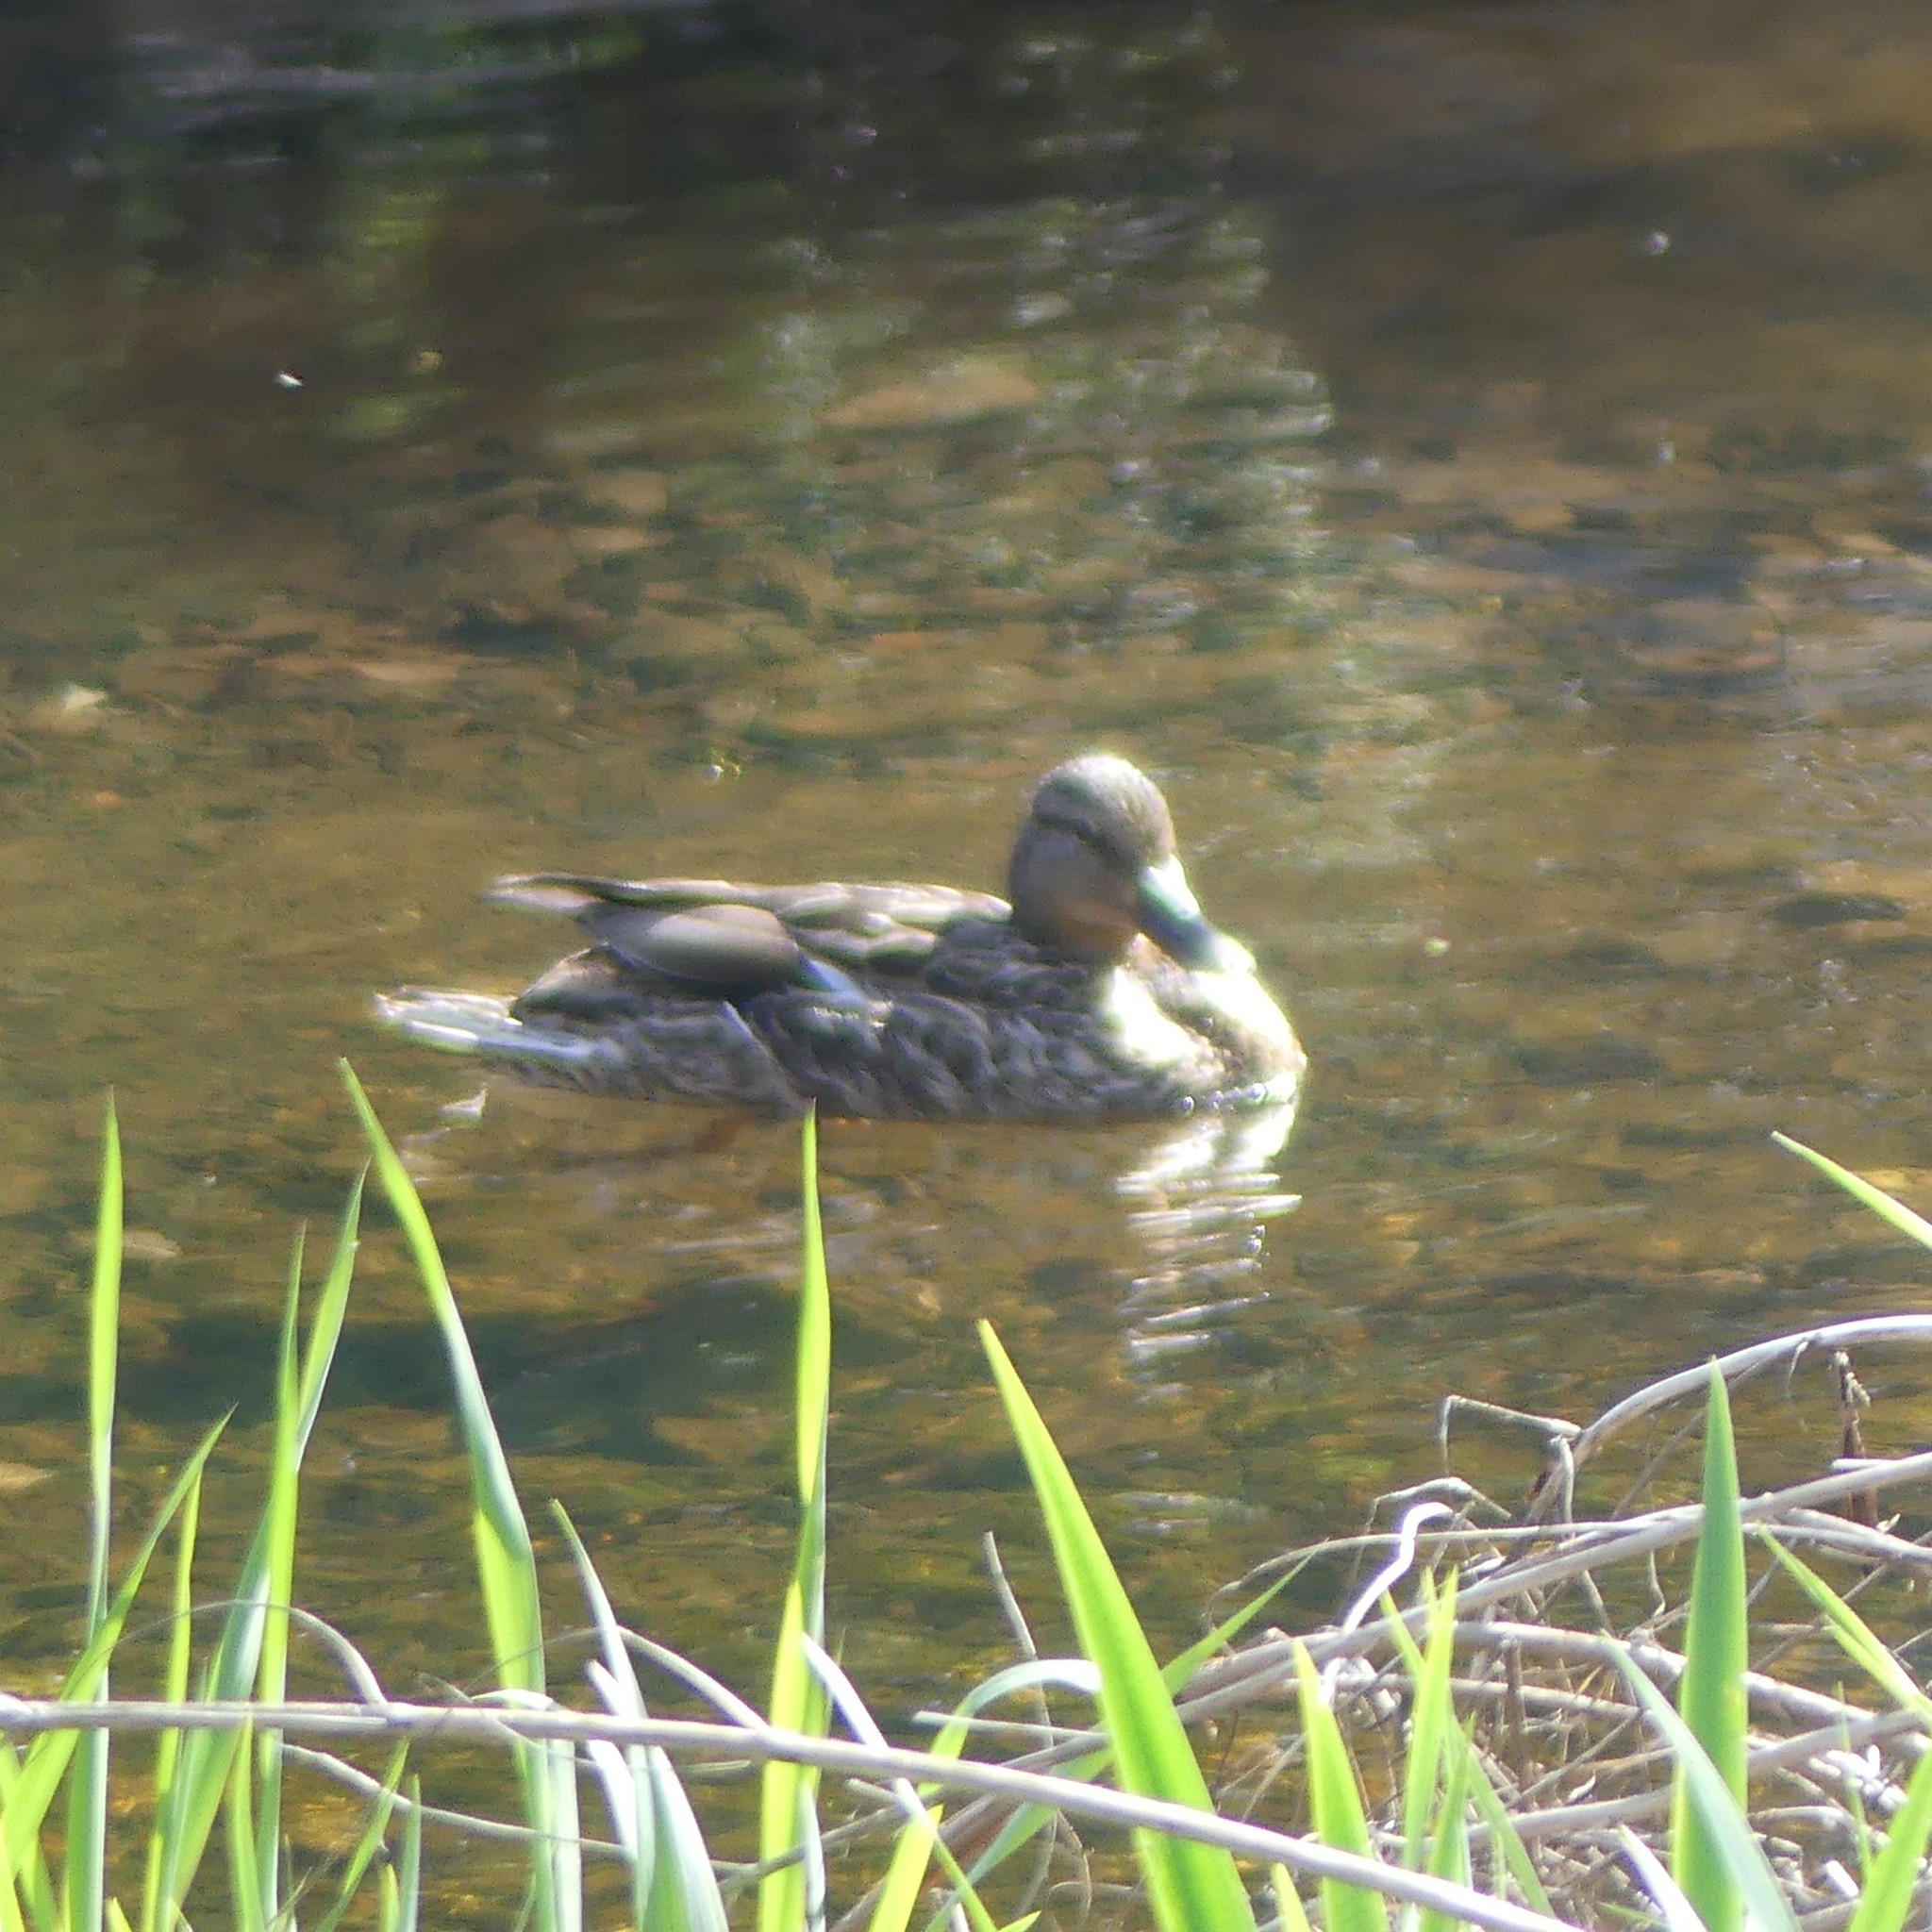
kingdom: Animalia
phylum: Chordata
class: Aves
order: Anseriformes
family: Anatidae
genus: Anas
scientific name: Anas platyrhynchos
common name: Mallard
